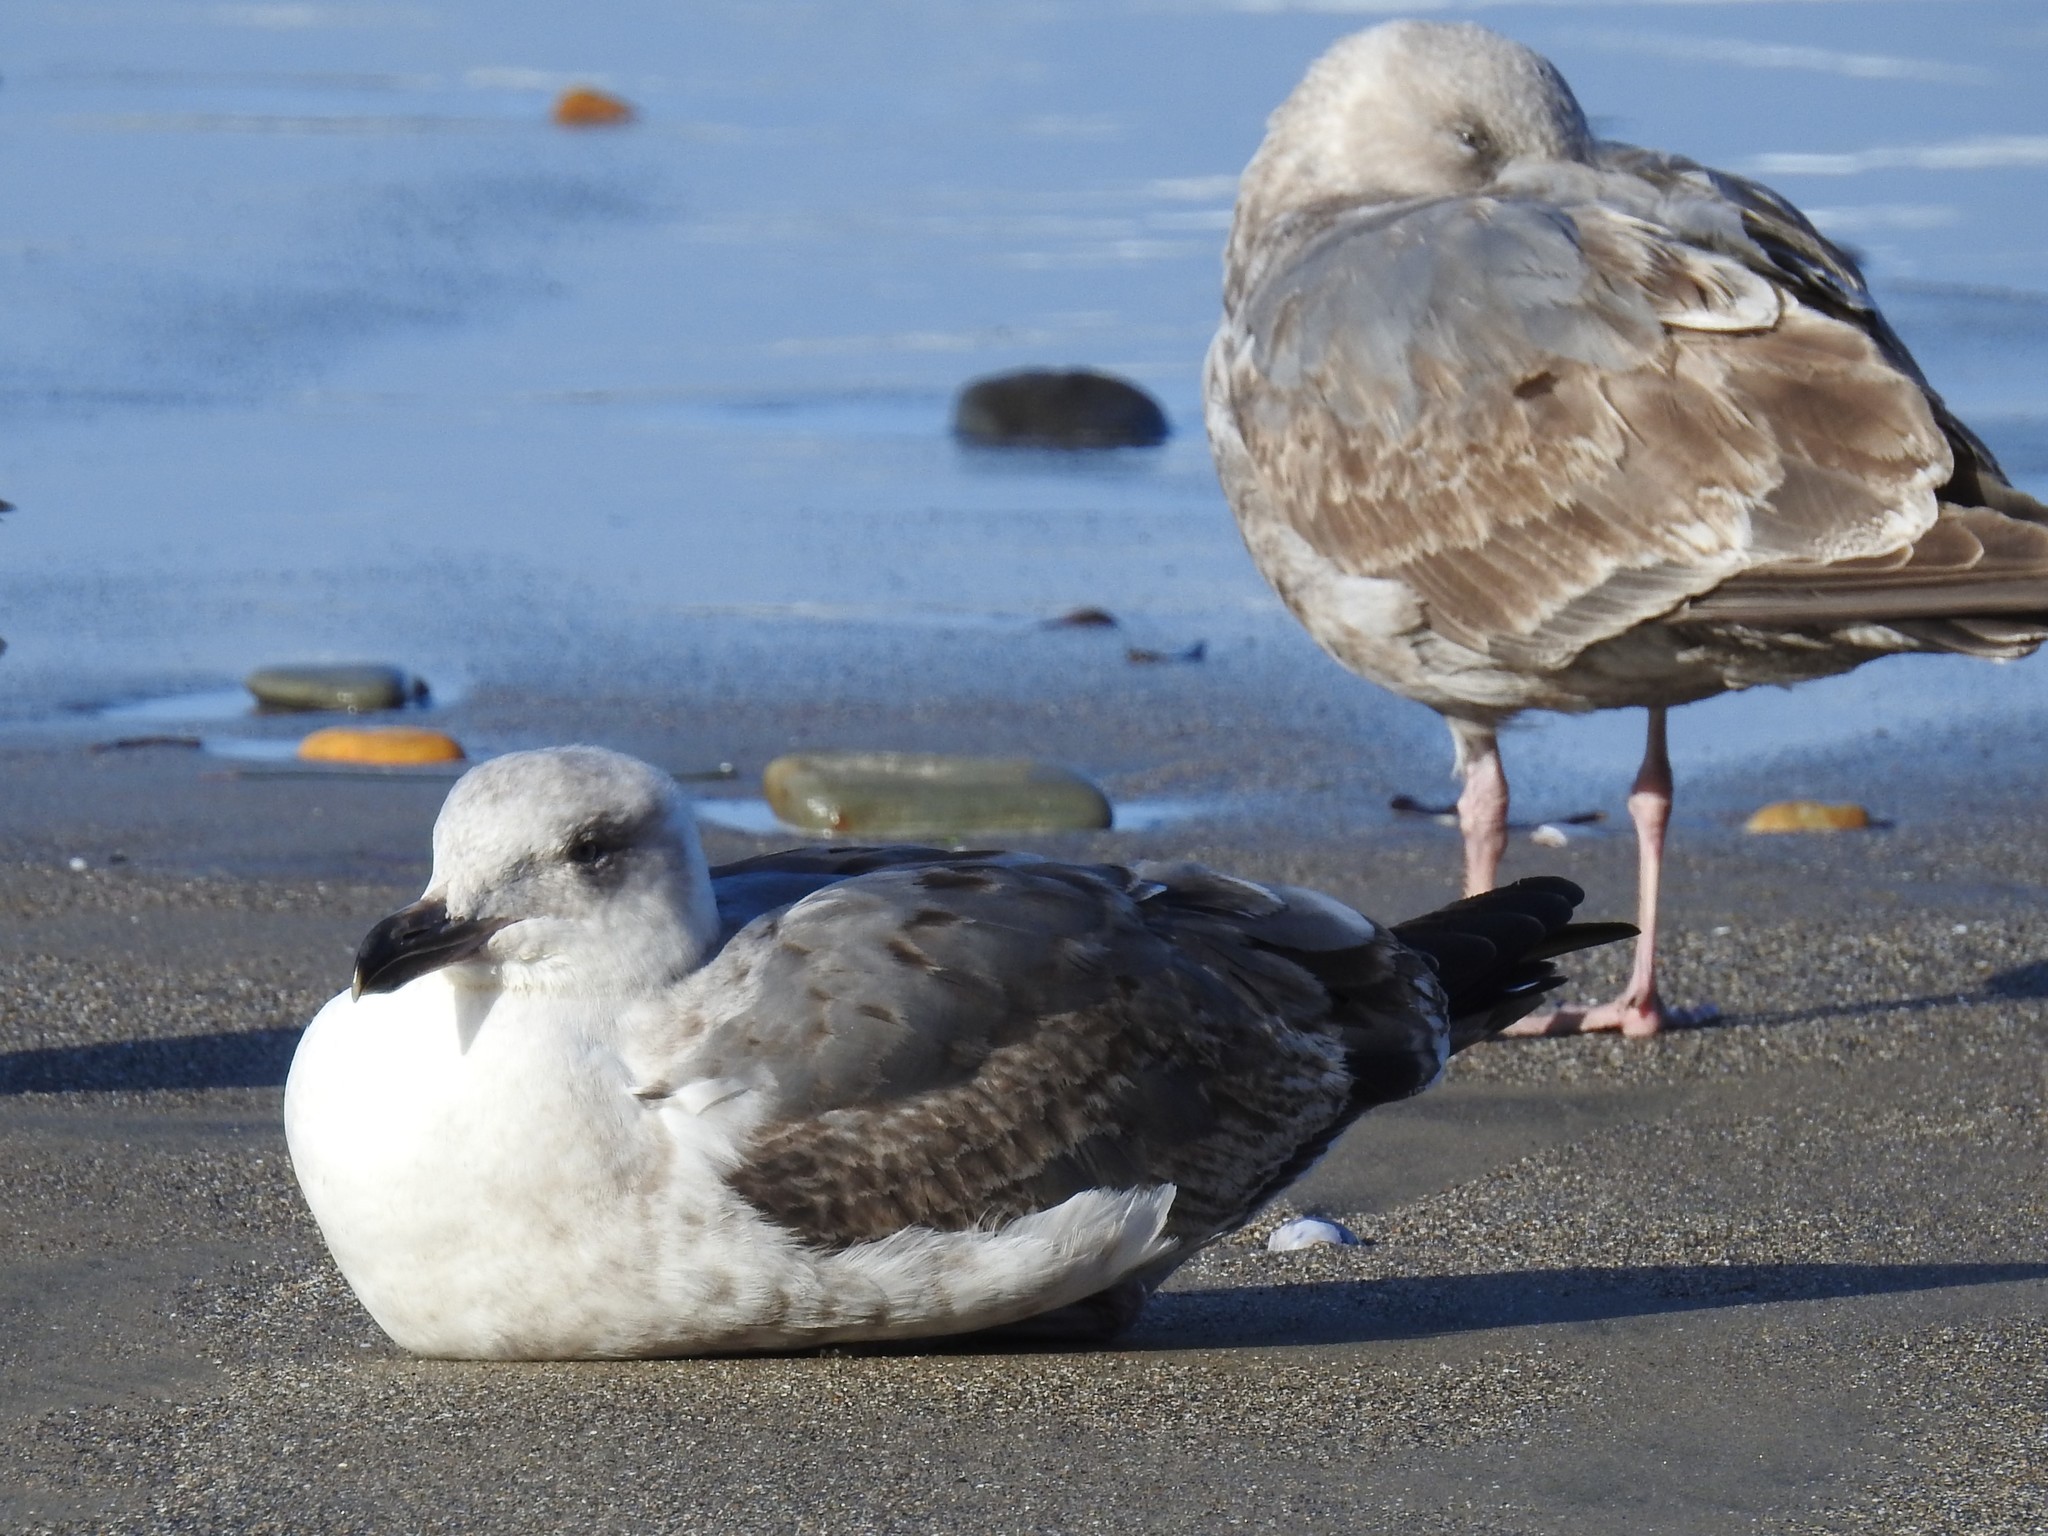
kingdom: Animalia
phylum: Chordata
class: Aves
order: Charadriiformes
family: Laridae
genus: Larus
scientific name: Larus occidentalis
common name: Western gull
